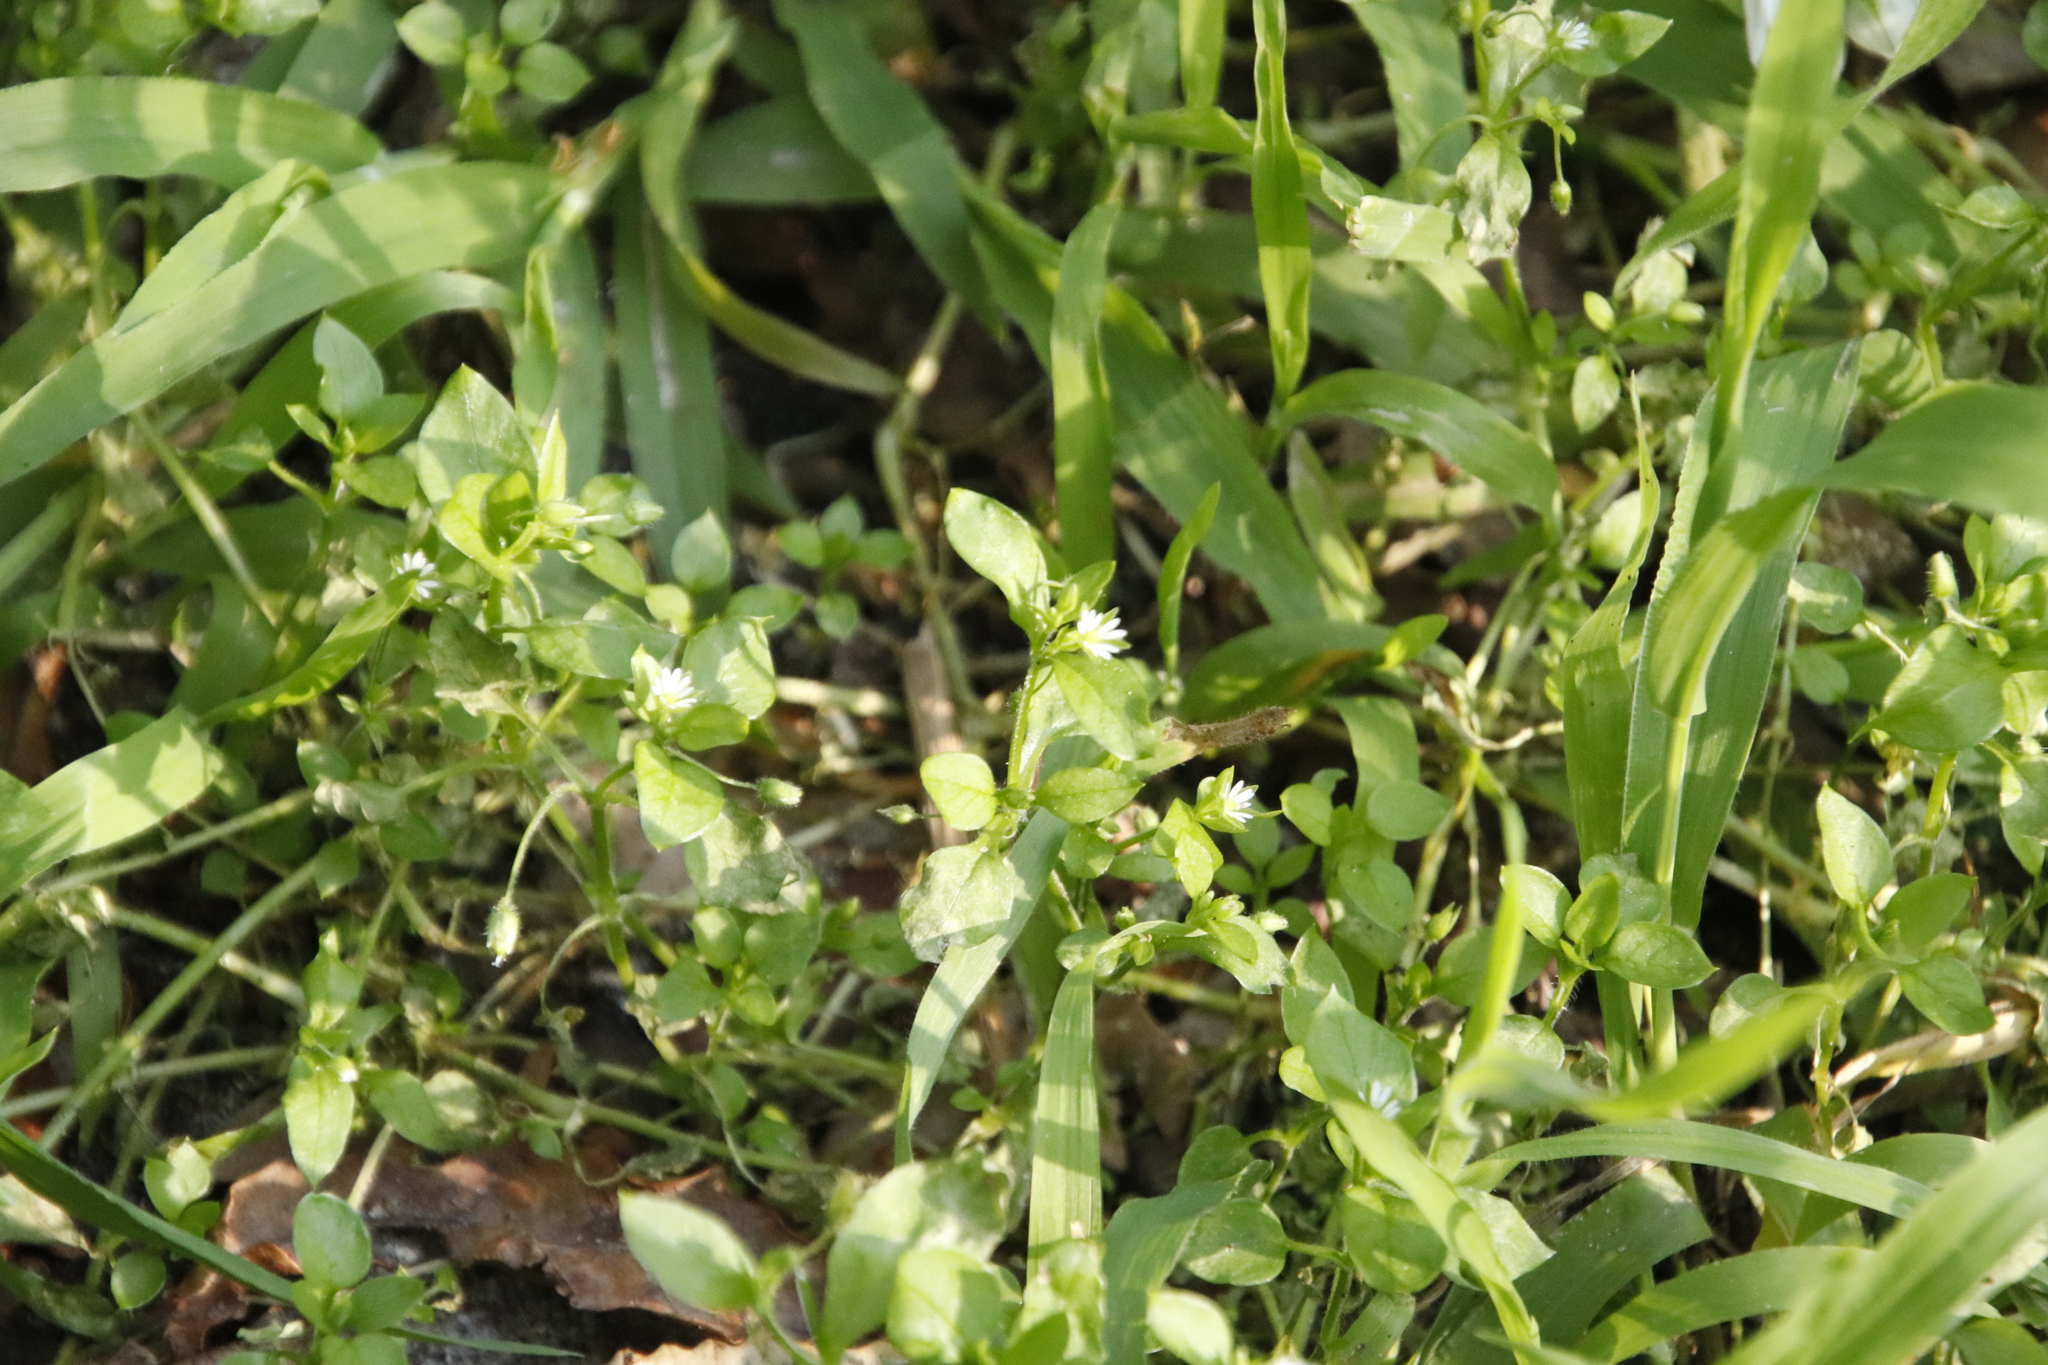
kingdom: Plantae
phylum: Tracheophyta
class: Magnoliopsida
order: Caryophyllales
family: Caryophyllaceae
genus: Stellaria
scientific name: Stellaria media
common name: Common chickweed
